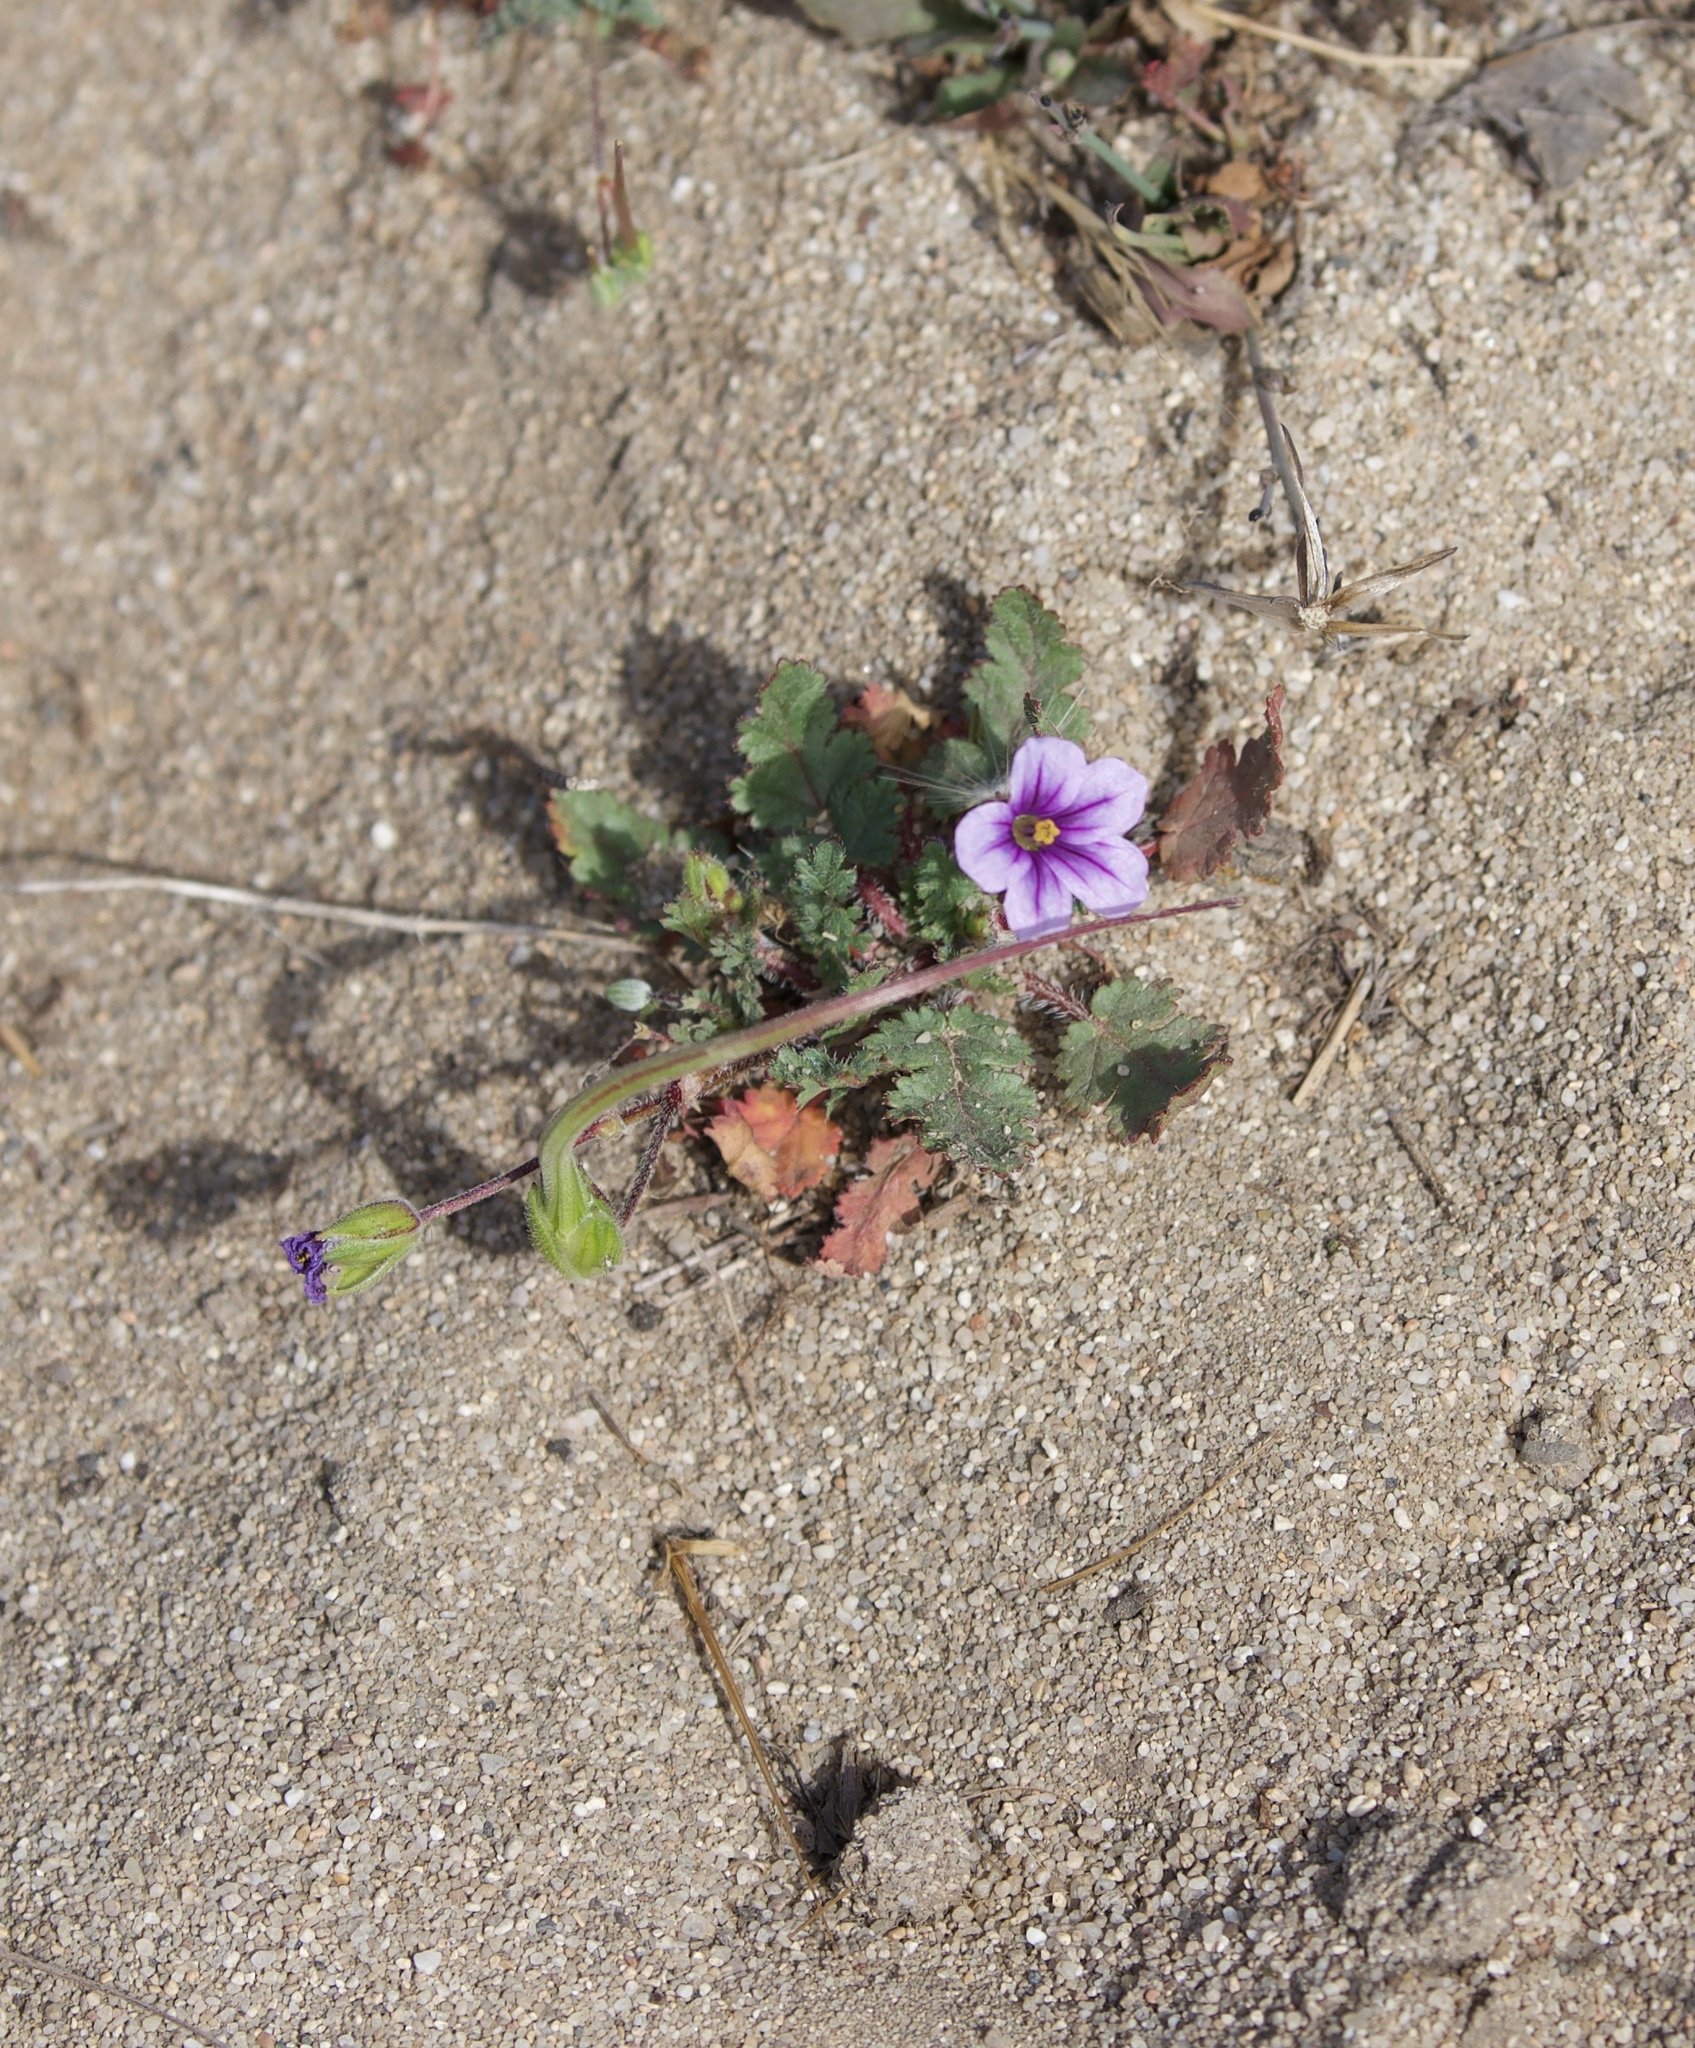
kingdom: Plantae
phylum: Tracheophyta
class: Magnoliopsida
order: Geraniales
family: Geraniaceae
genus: Erodium
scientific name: Erodium botrys
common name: Mediterranean stork's-bill
